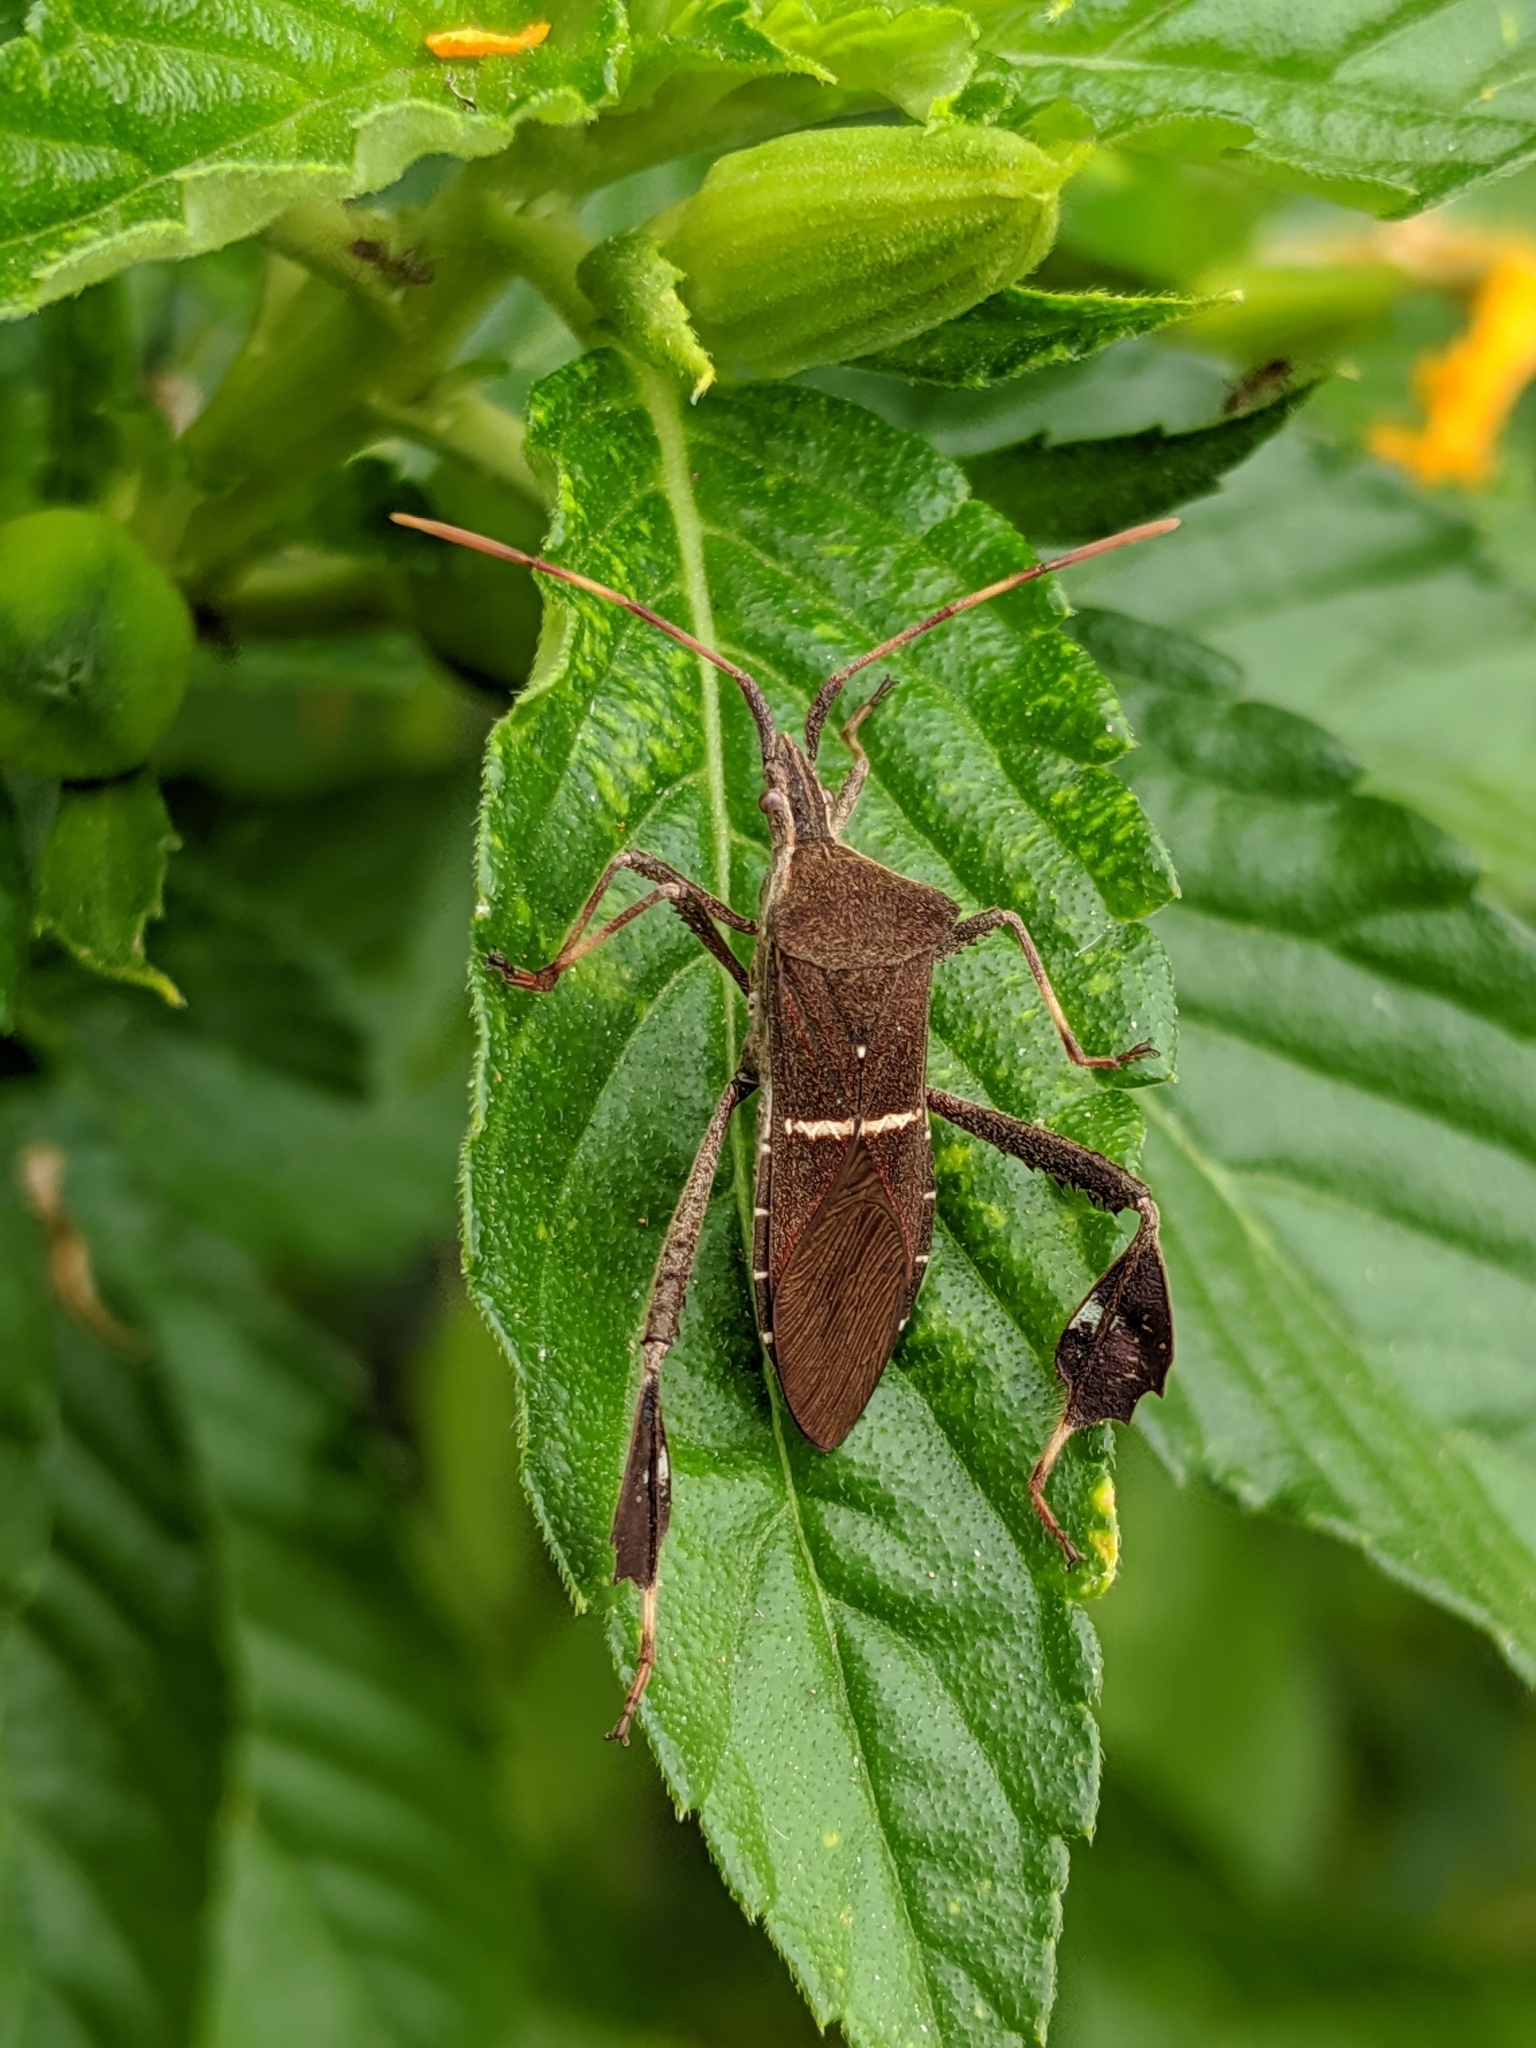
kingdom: Animalia
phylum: Arthropoda
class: Insecta
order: Hemiptera
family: Coreidae
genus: Leptoglossus
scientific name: Leptoglossus phyllopus
